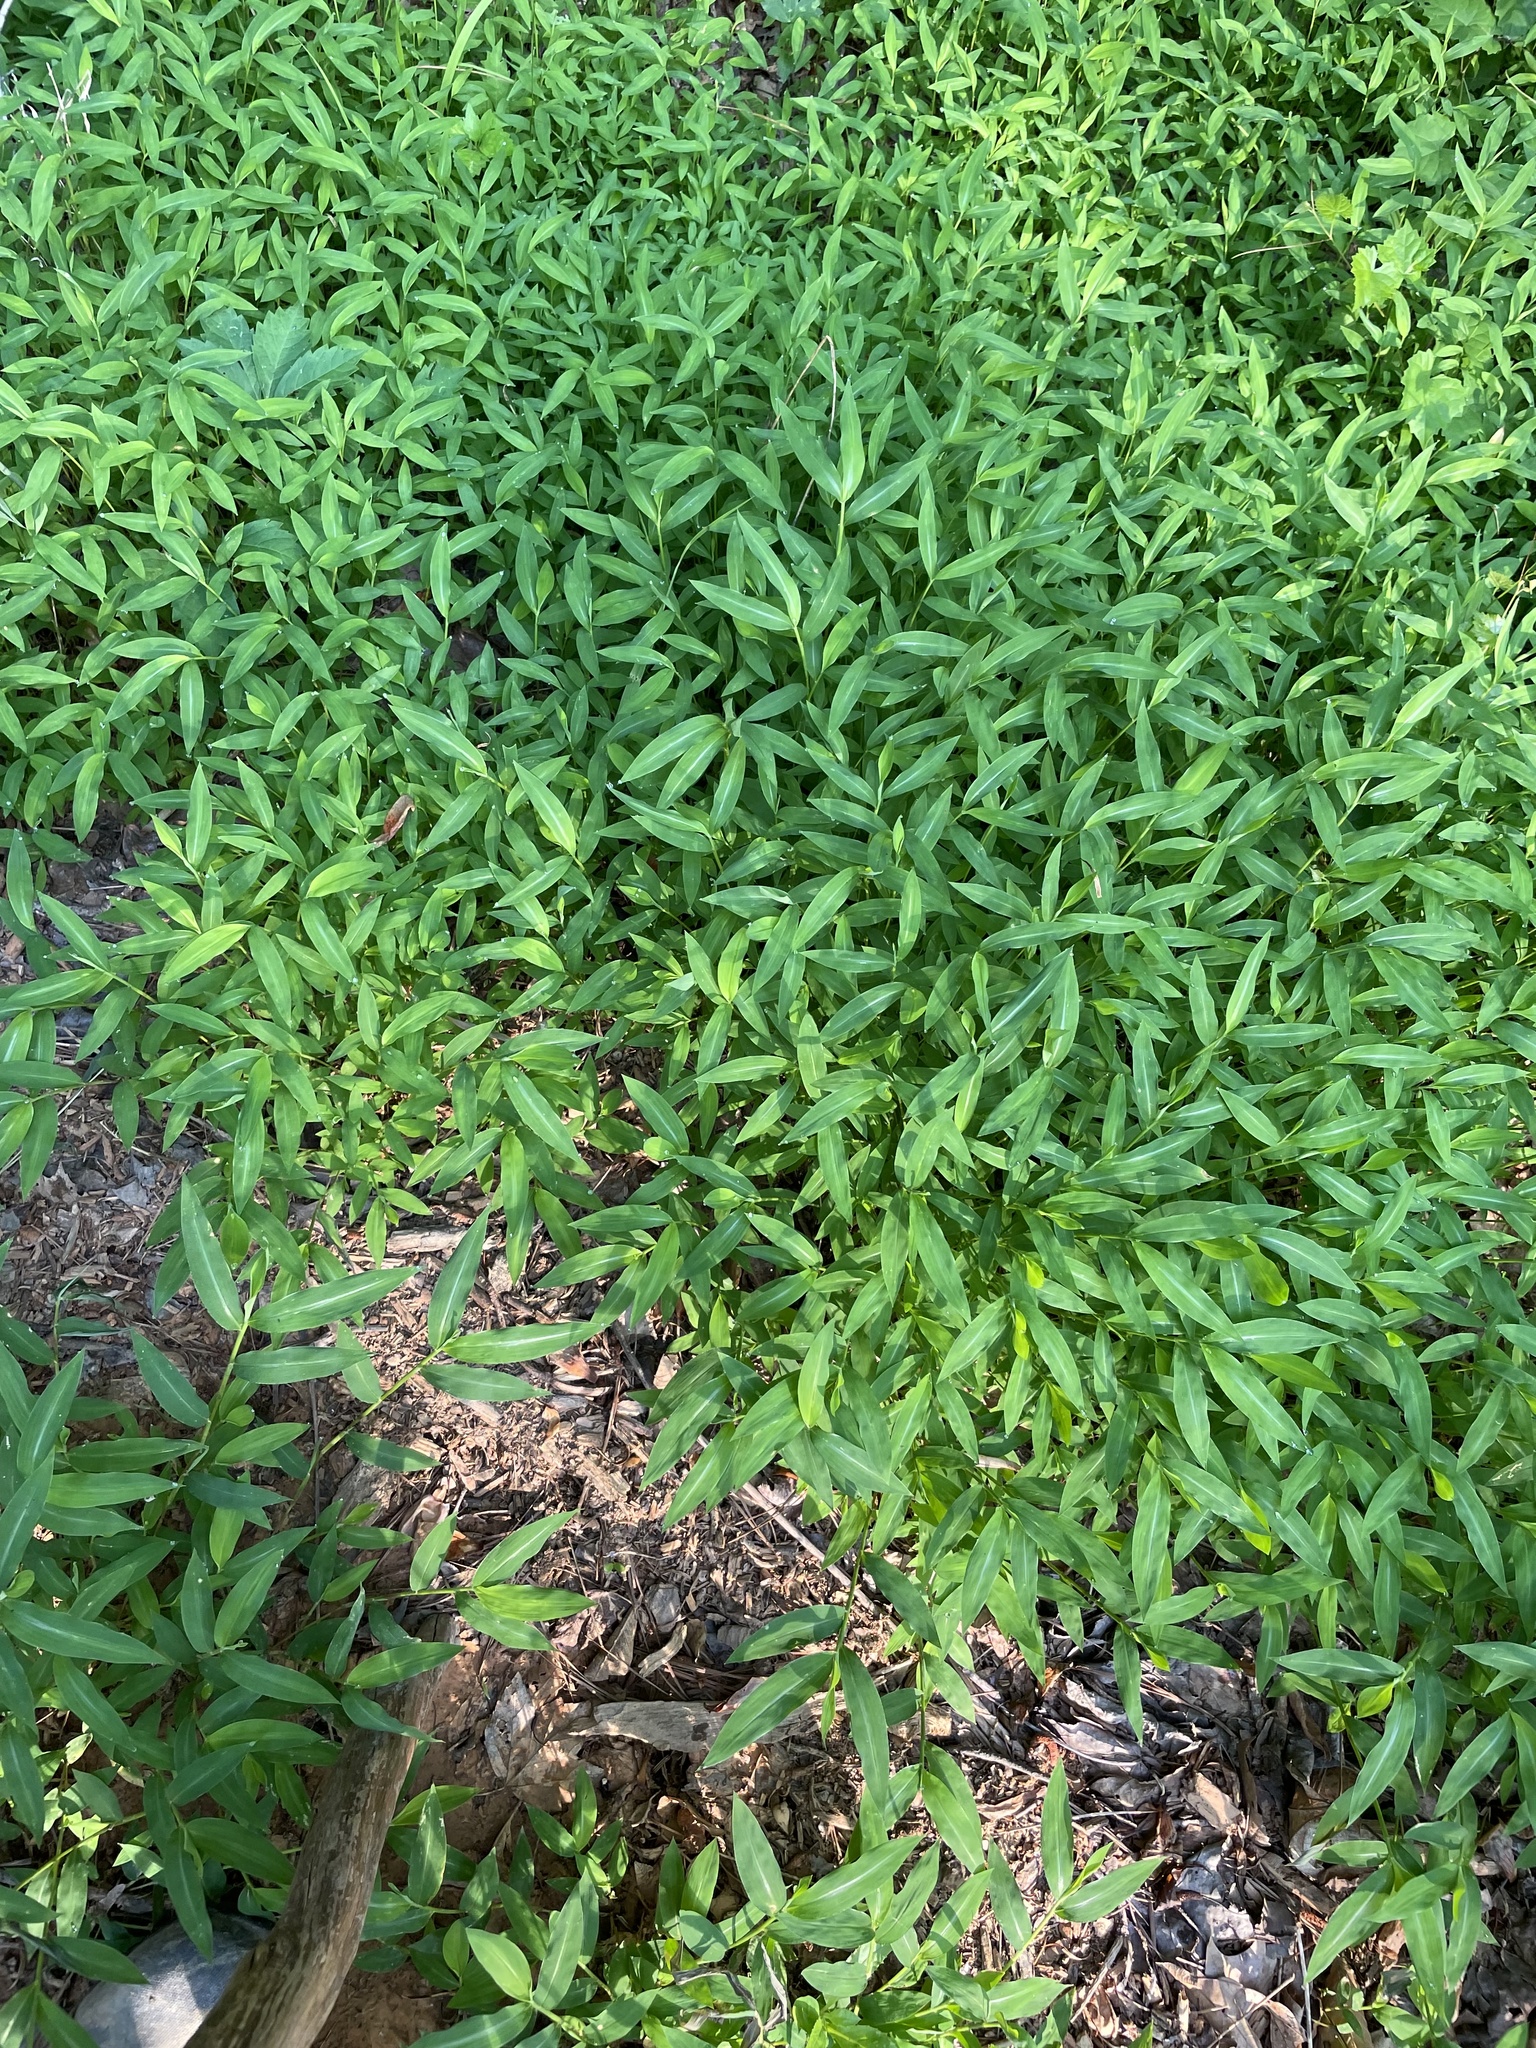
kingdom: Plantae
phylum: Tracheophyta
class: Liliopsida
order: Poales
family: Poaceae
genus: Microstegium
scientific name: Microstegium vimineum
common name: Japanese stiltgrass
